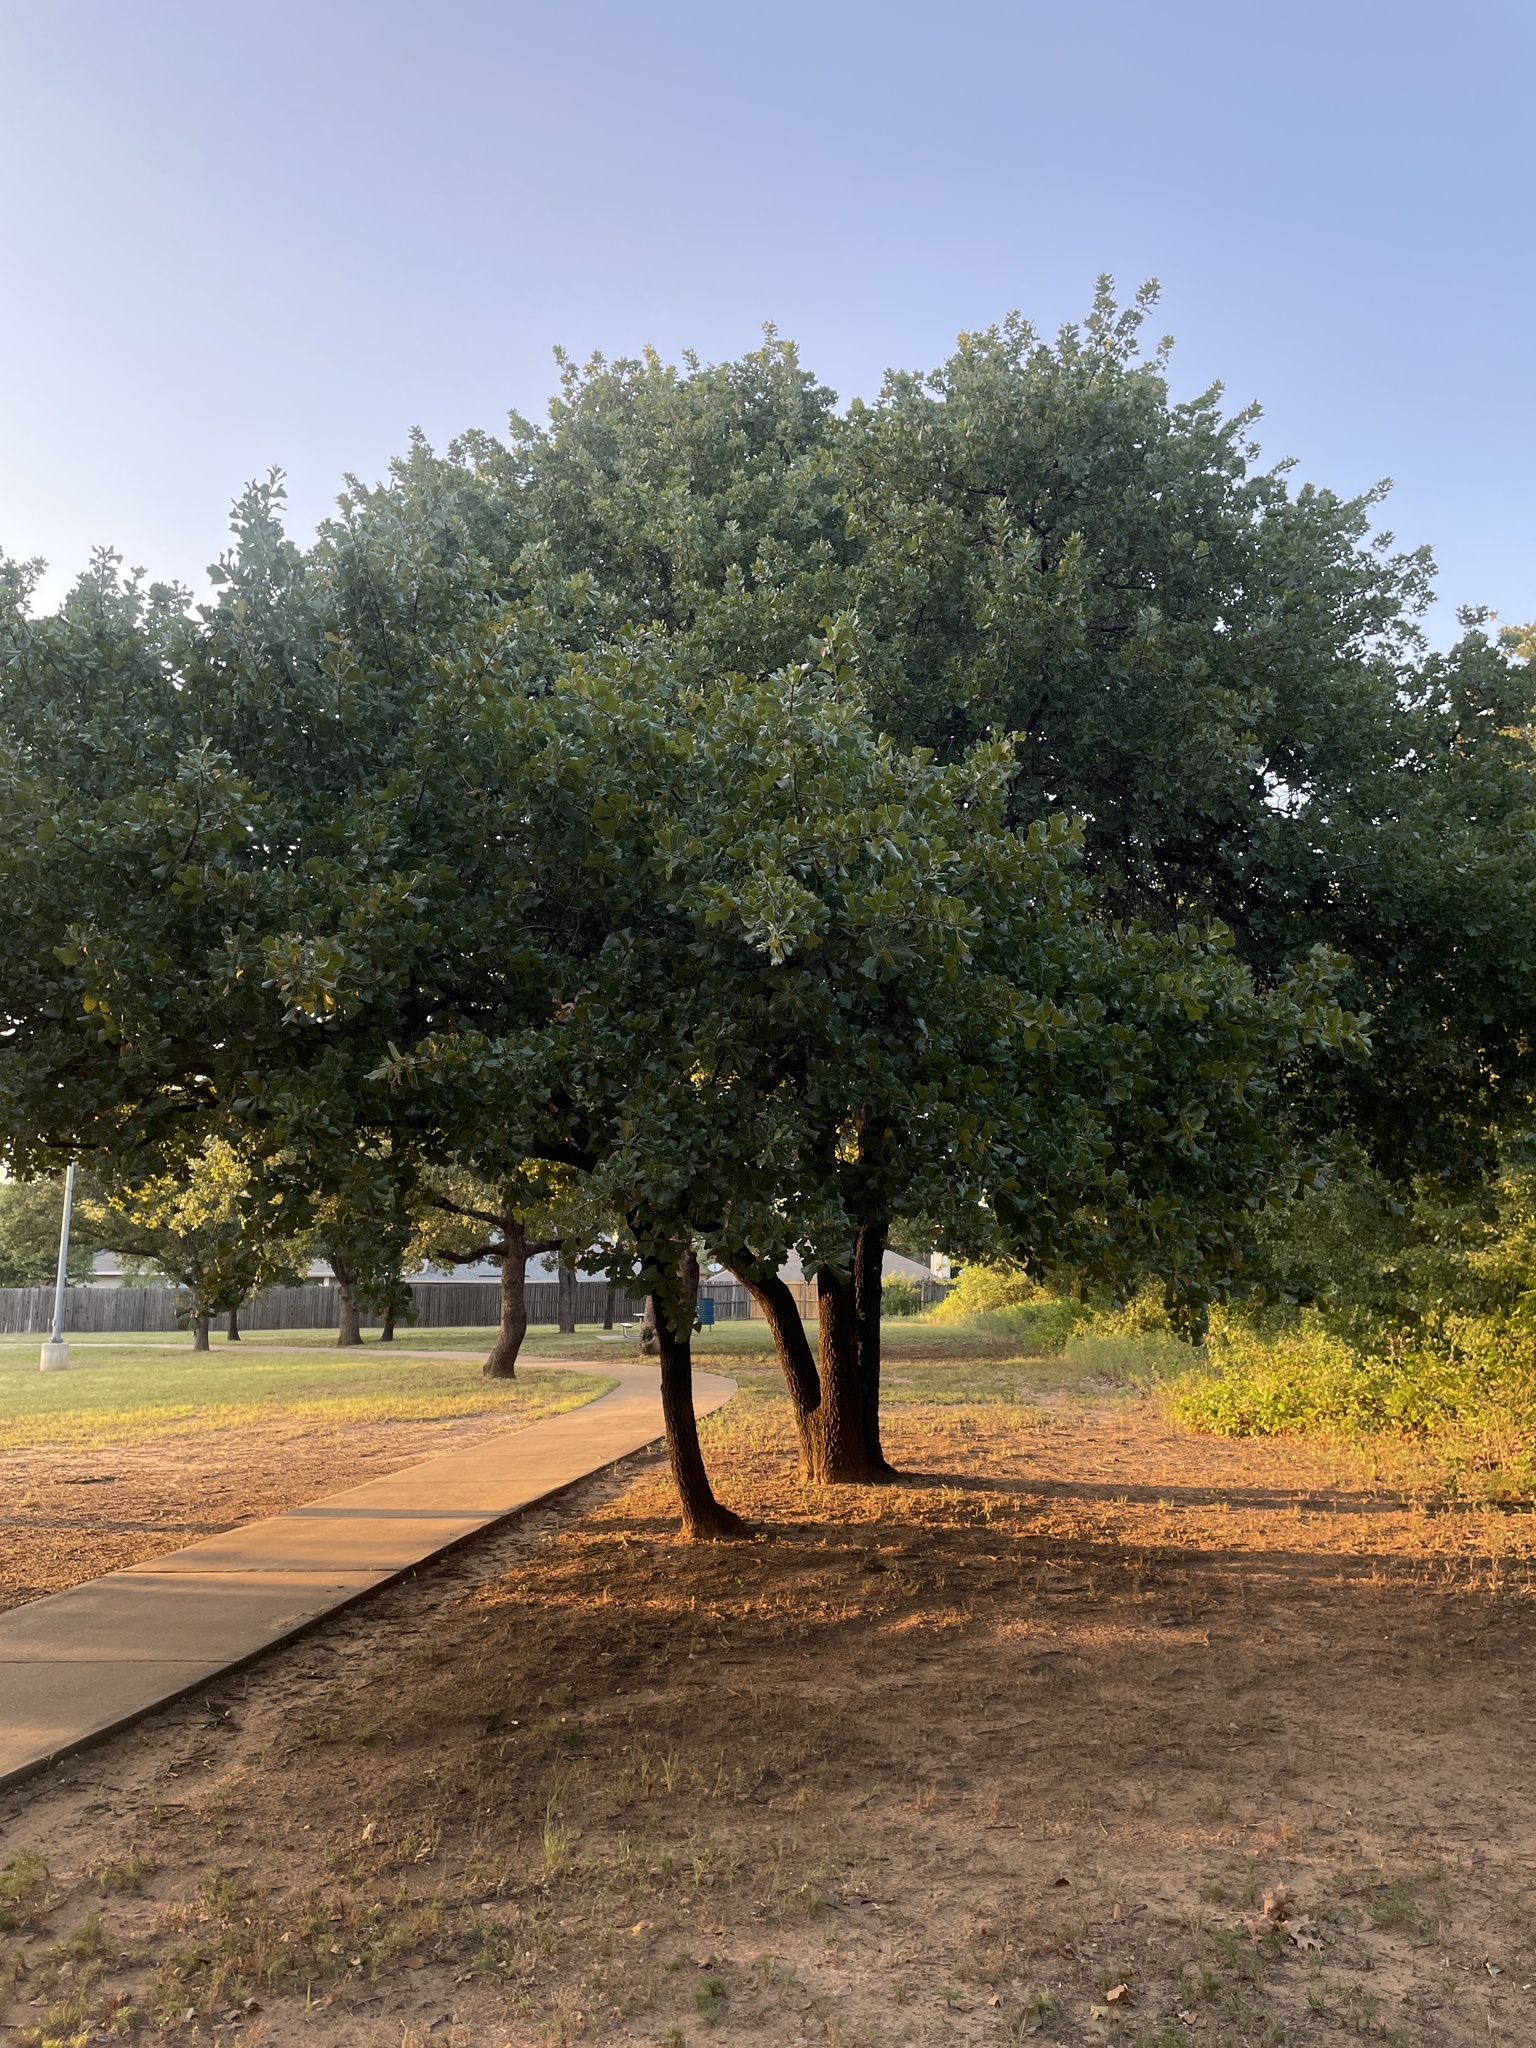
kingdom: Plantae
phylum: Tracheophyta
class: Magnoliopsida
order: Fagales
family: Fagaceae
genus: Quercus
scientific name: Quercus marilandica
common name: Blackjack oak
